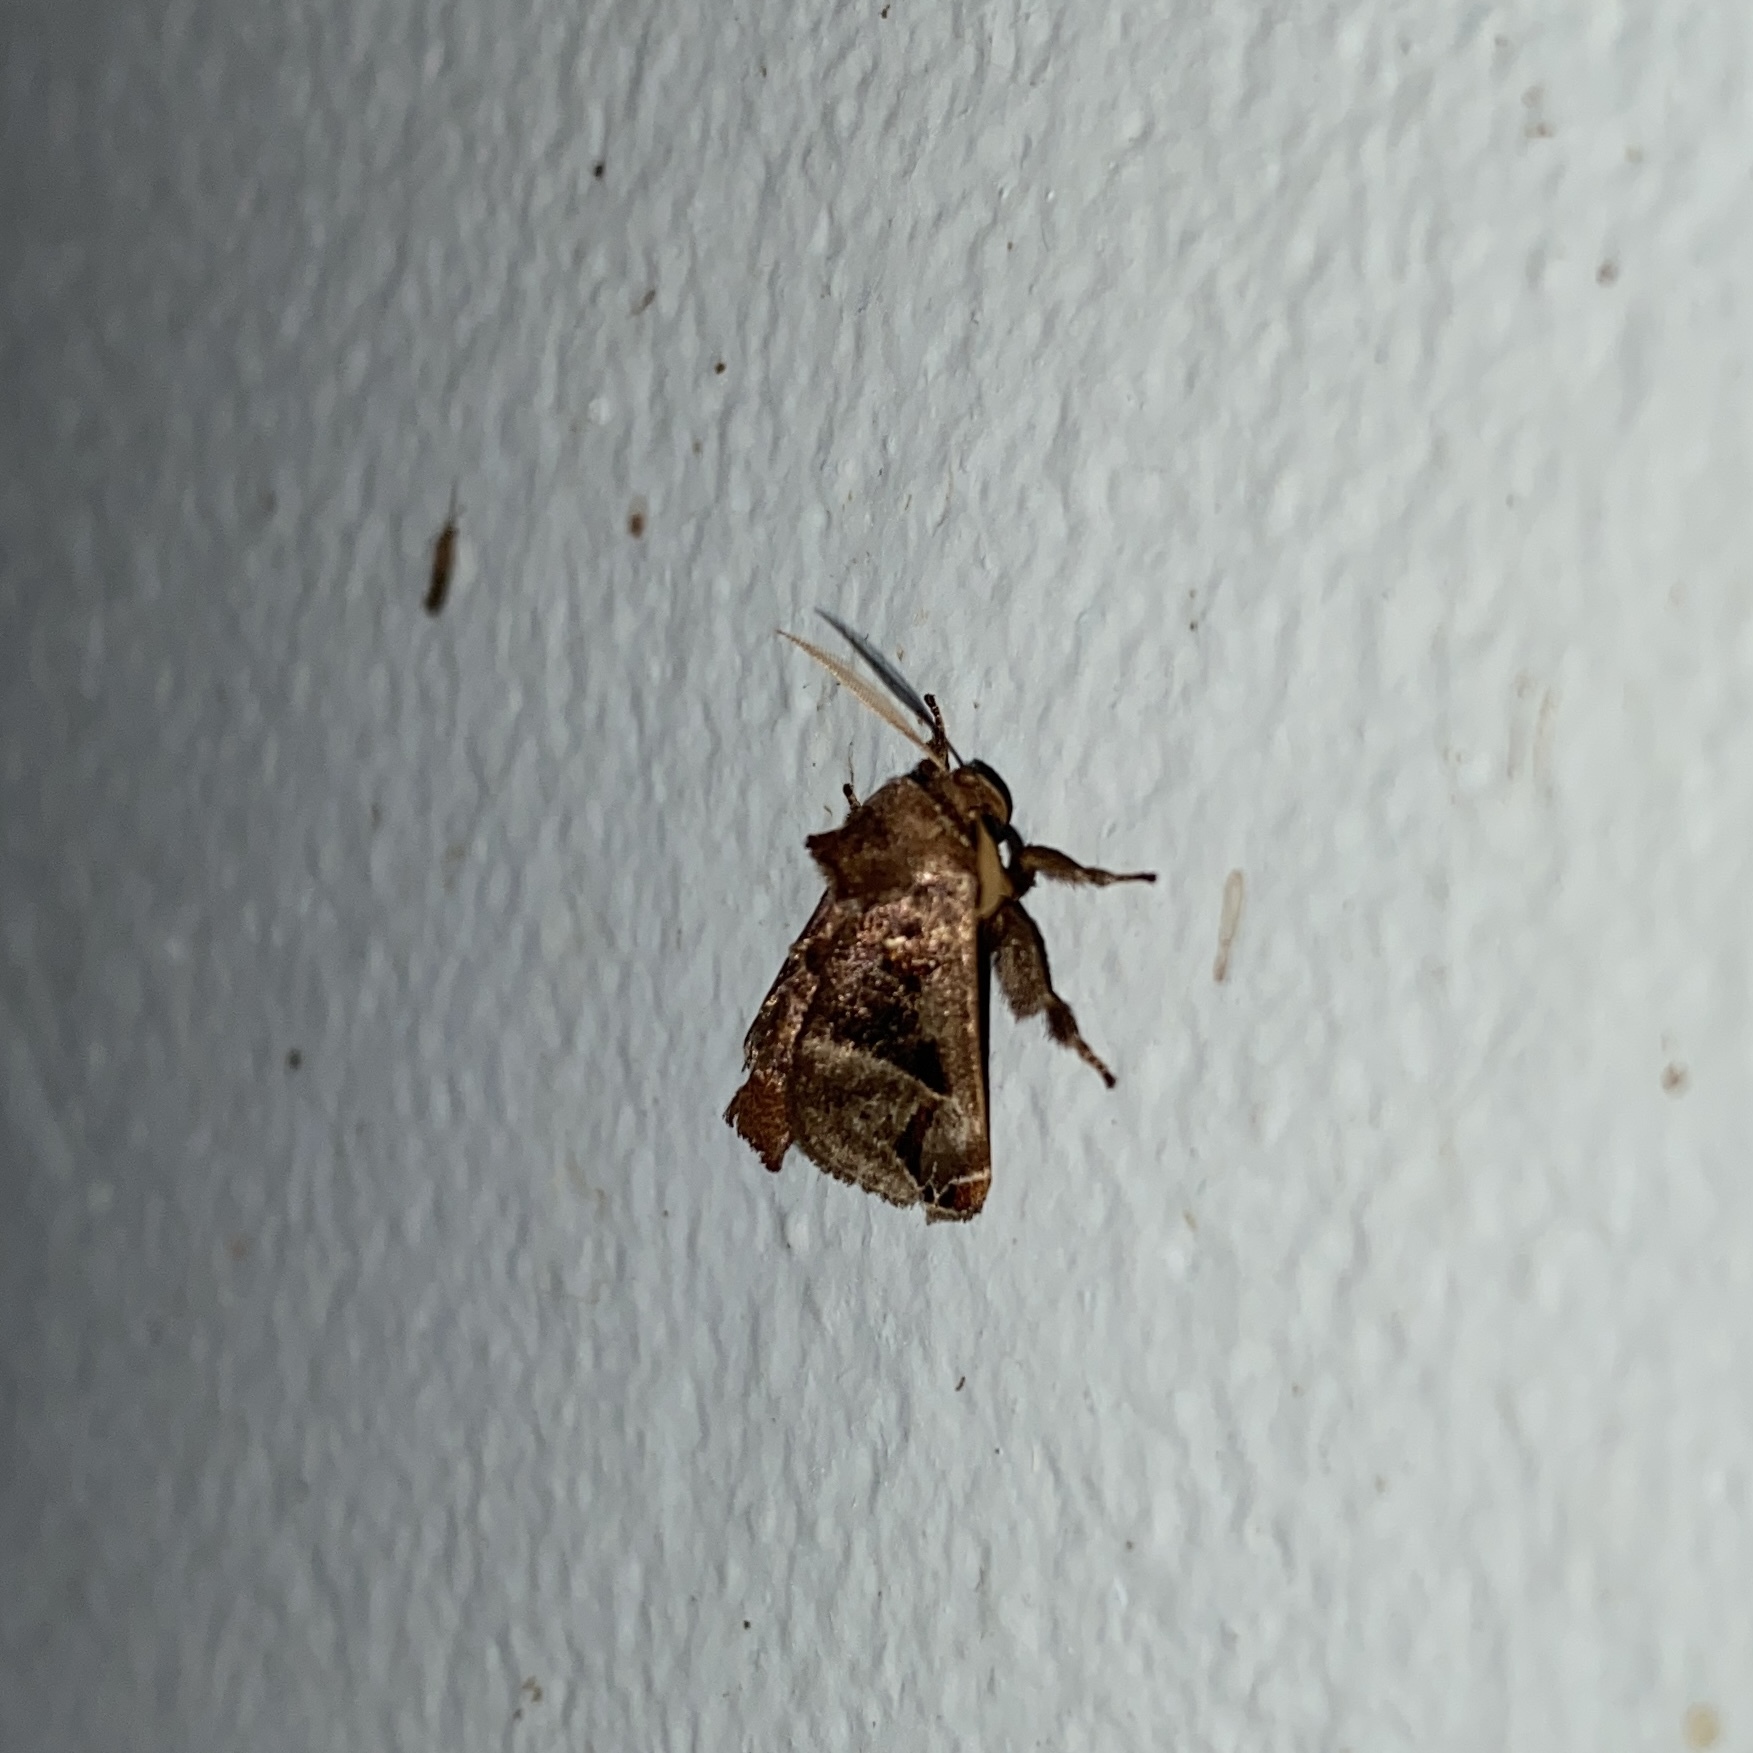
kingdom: Animalia
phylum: Arthropoda
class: Insecta
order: Lepidoptera
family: Limacodidae
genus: Semyra
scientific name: Semyra coarctata
